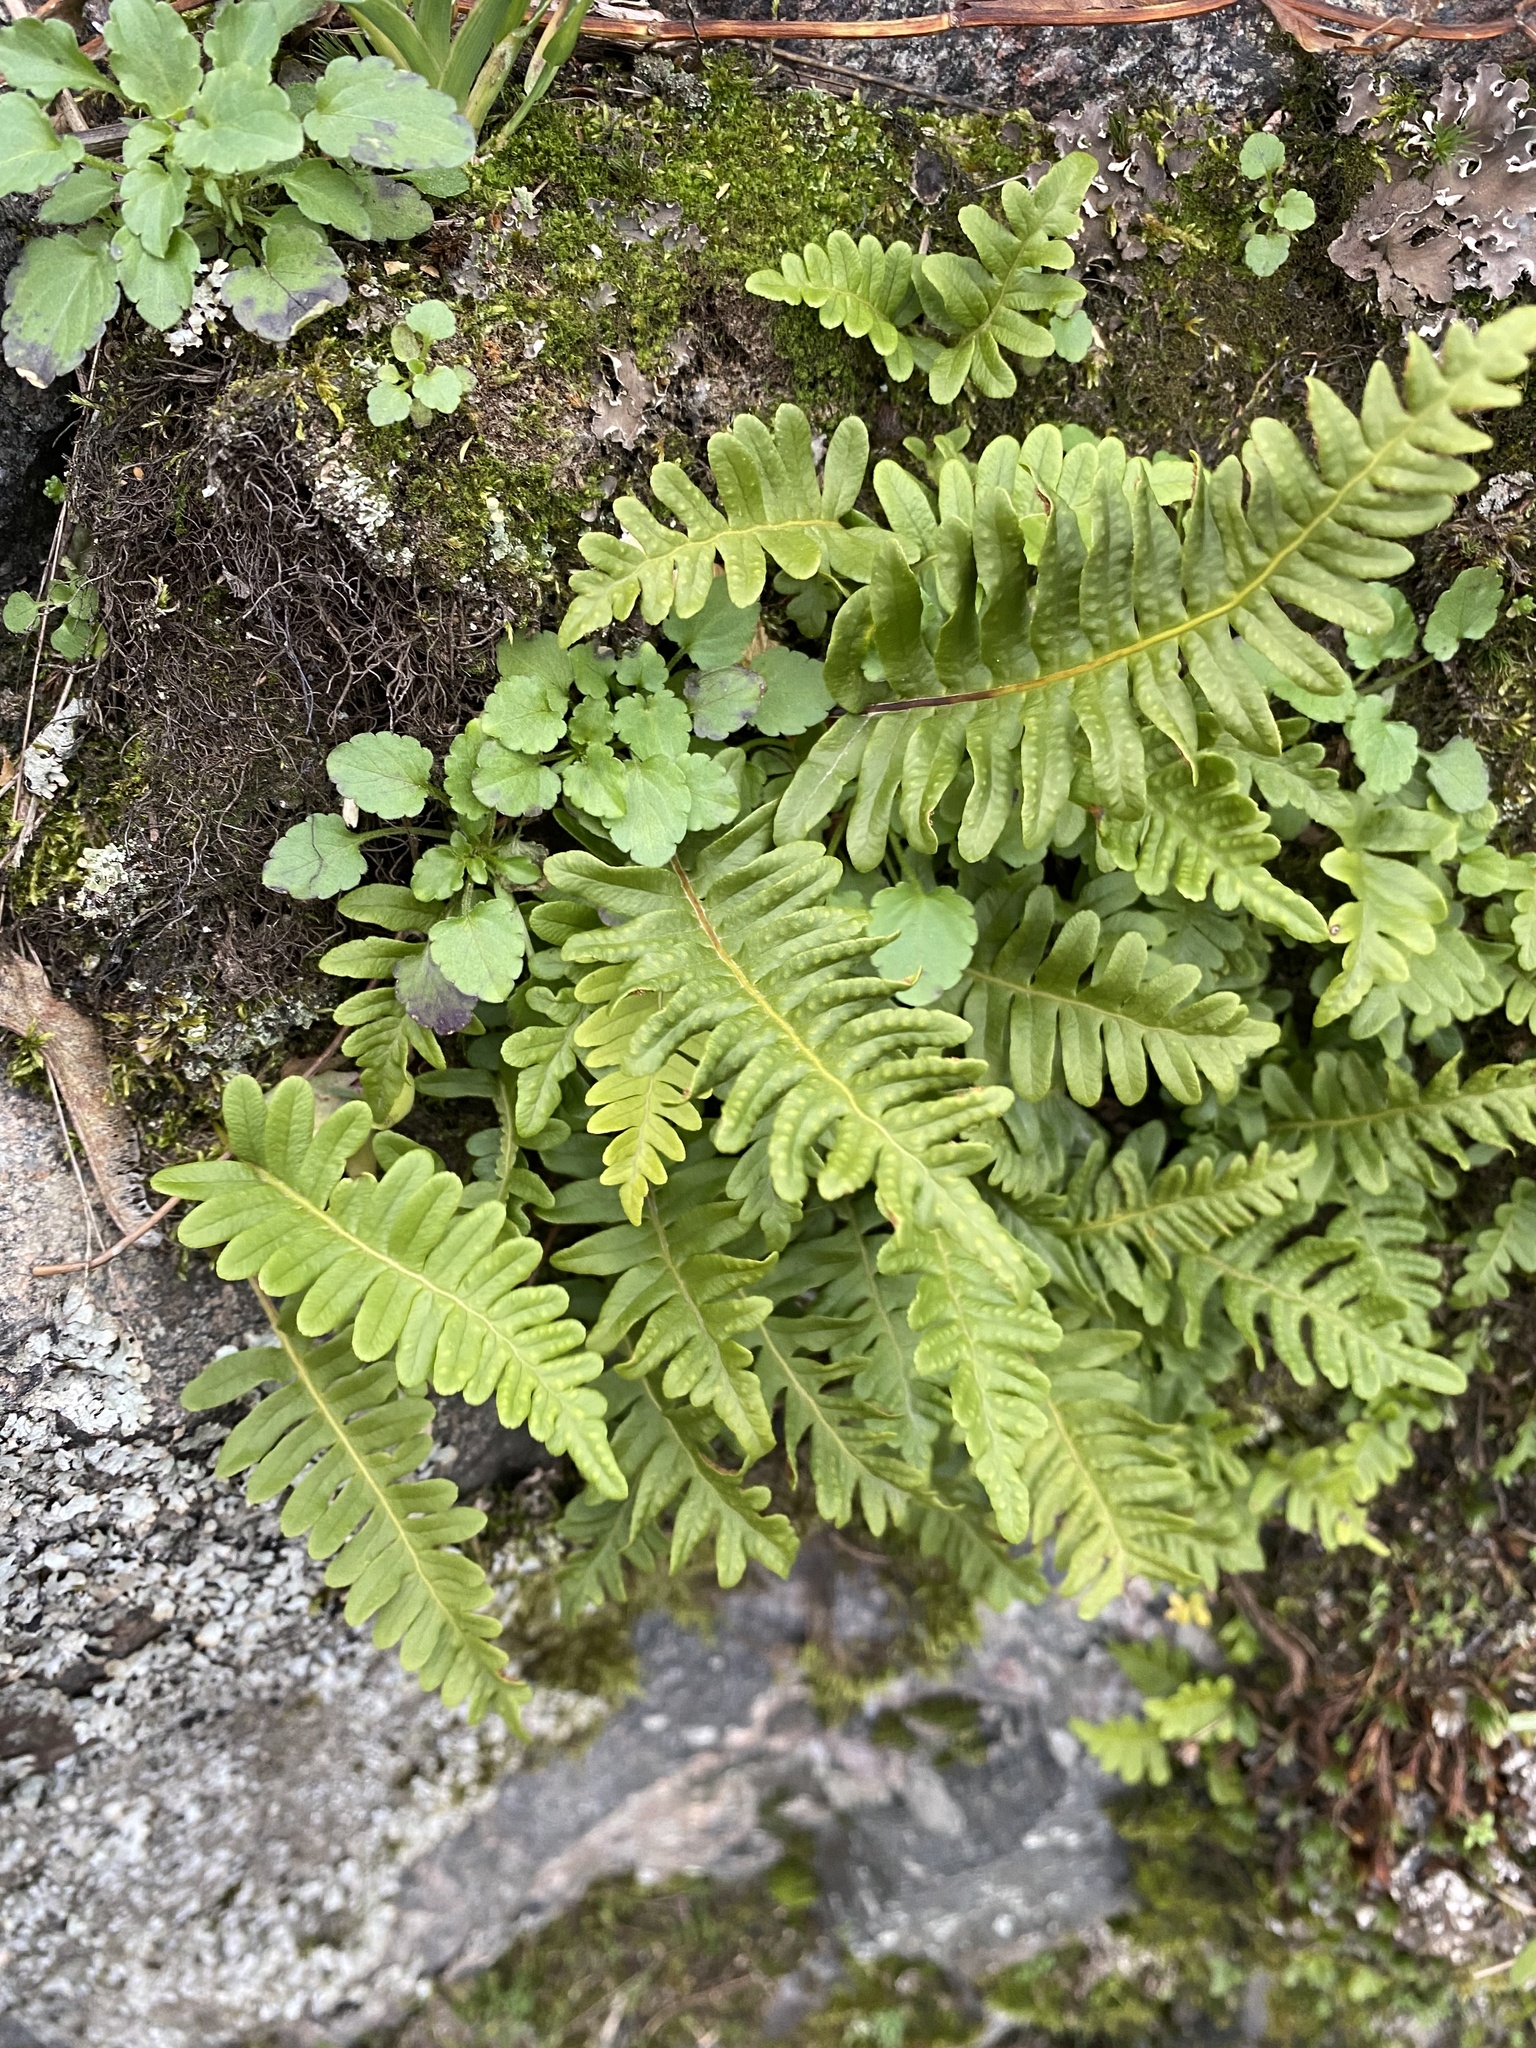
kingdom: Plantae
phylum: Tracheophyta
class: Polypodiopsida
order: Polypodiales
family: Polypodiaceae
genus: Polypodium
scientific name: Polypodium vulgare
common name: Common polypody
